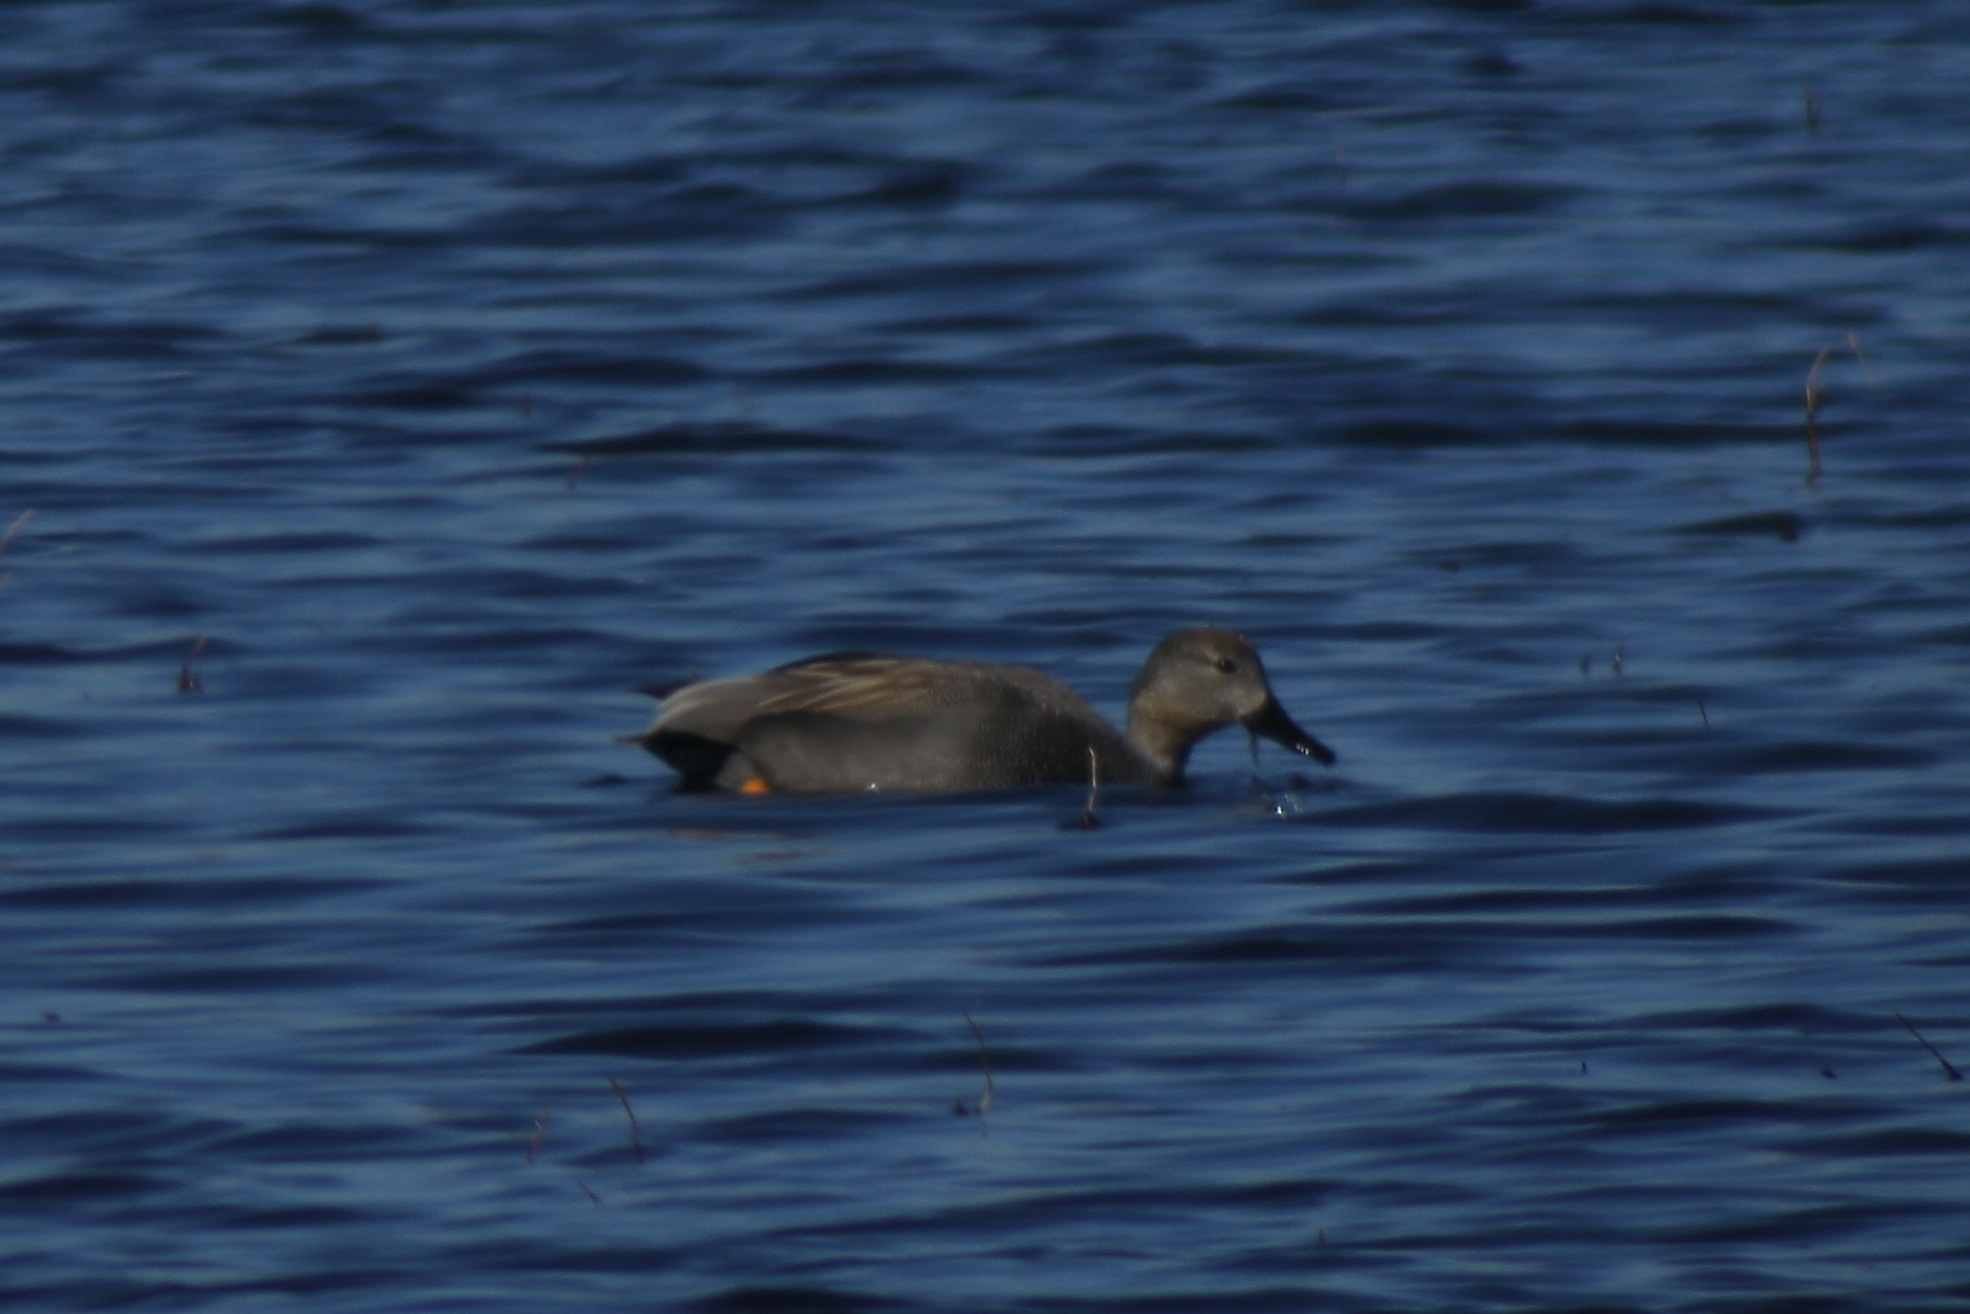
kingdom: Animalia
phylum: Chordata
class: Aves
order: Anseriformes
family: Anatidae
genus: Mareca
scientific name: Mareca strepera
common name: Gadwall
